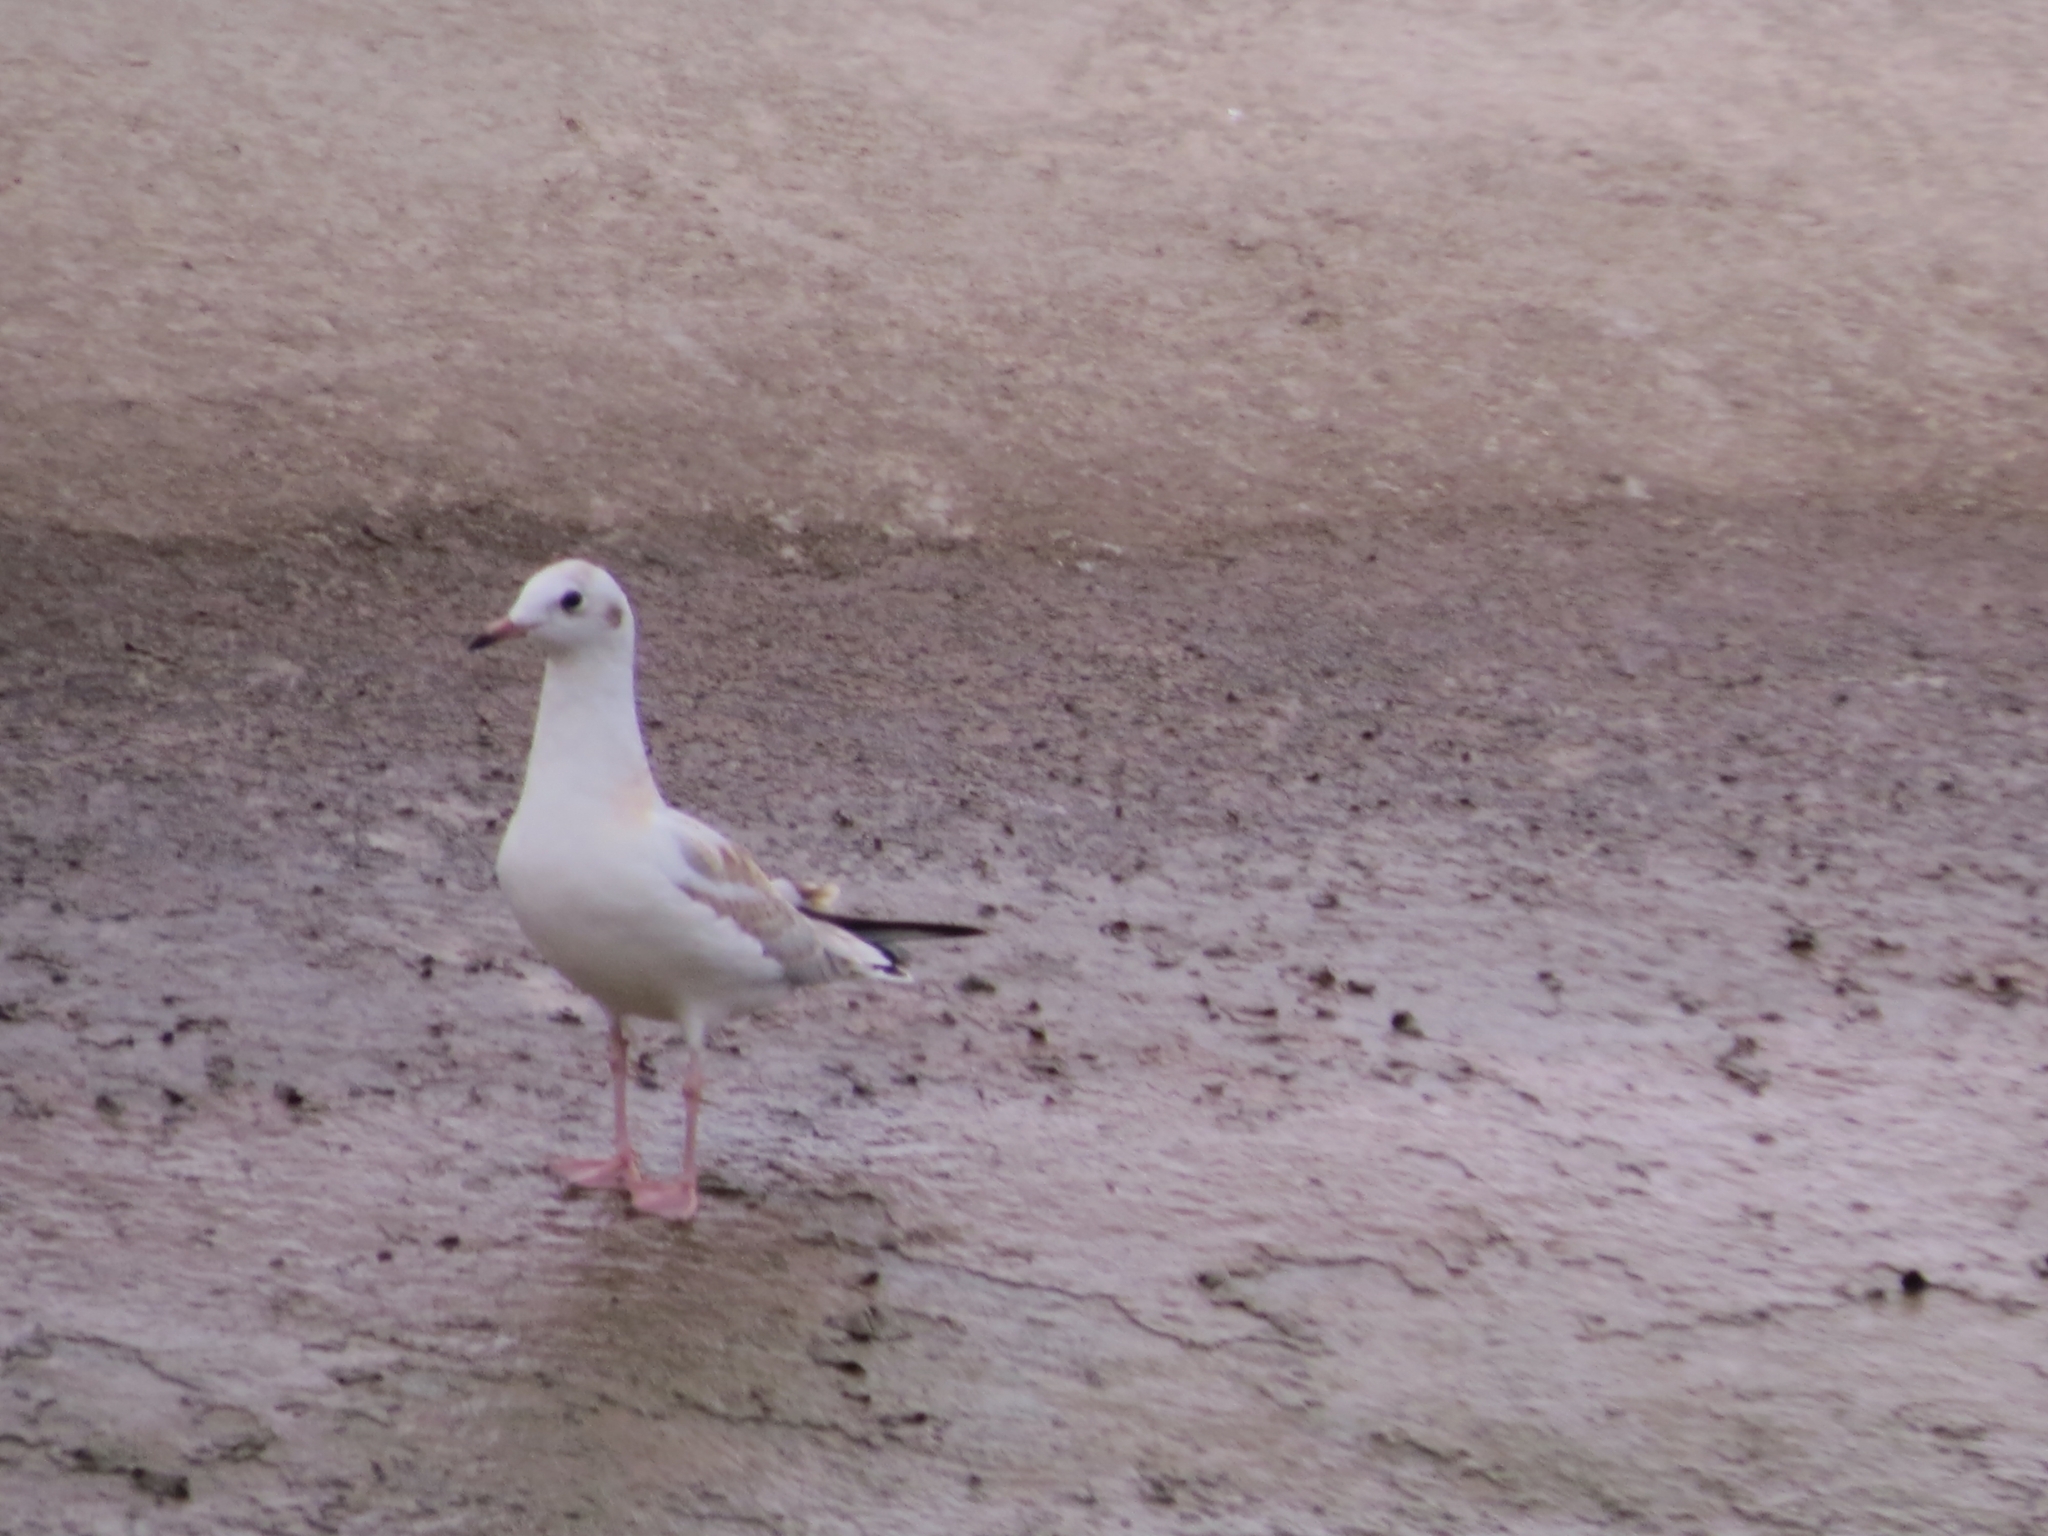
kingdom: Animalia
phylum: Chordata
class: Aves
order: Charadriiformes
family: Laridae
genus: Chroicocephalus
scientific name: Chroicocephalus ridibundus
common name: Black-headed gull
